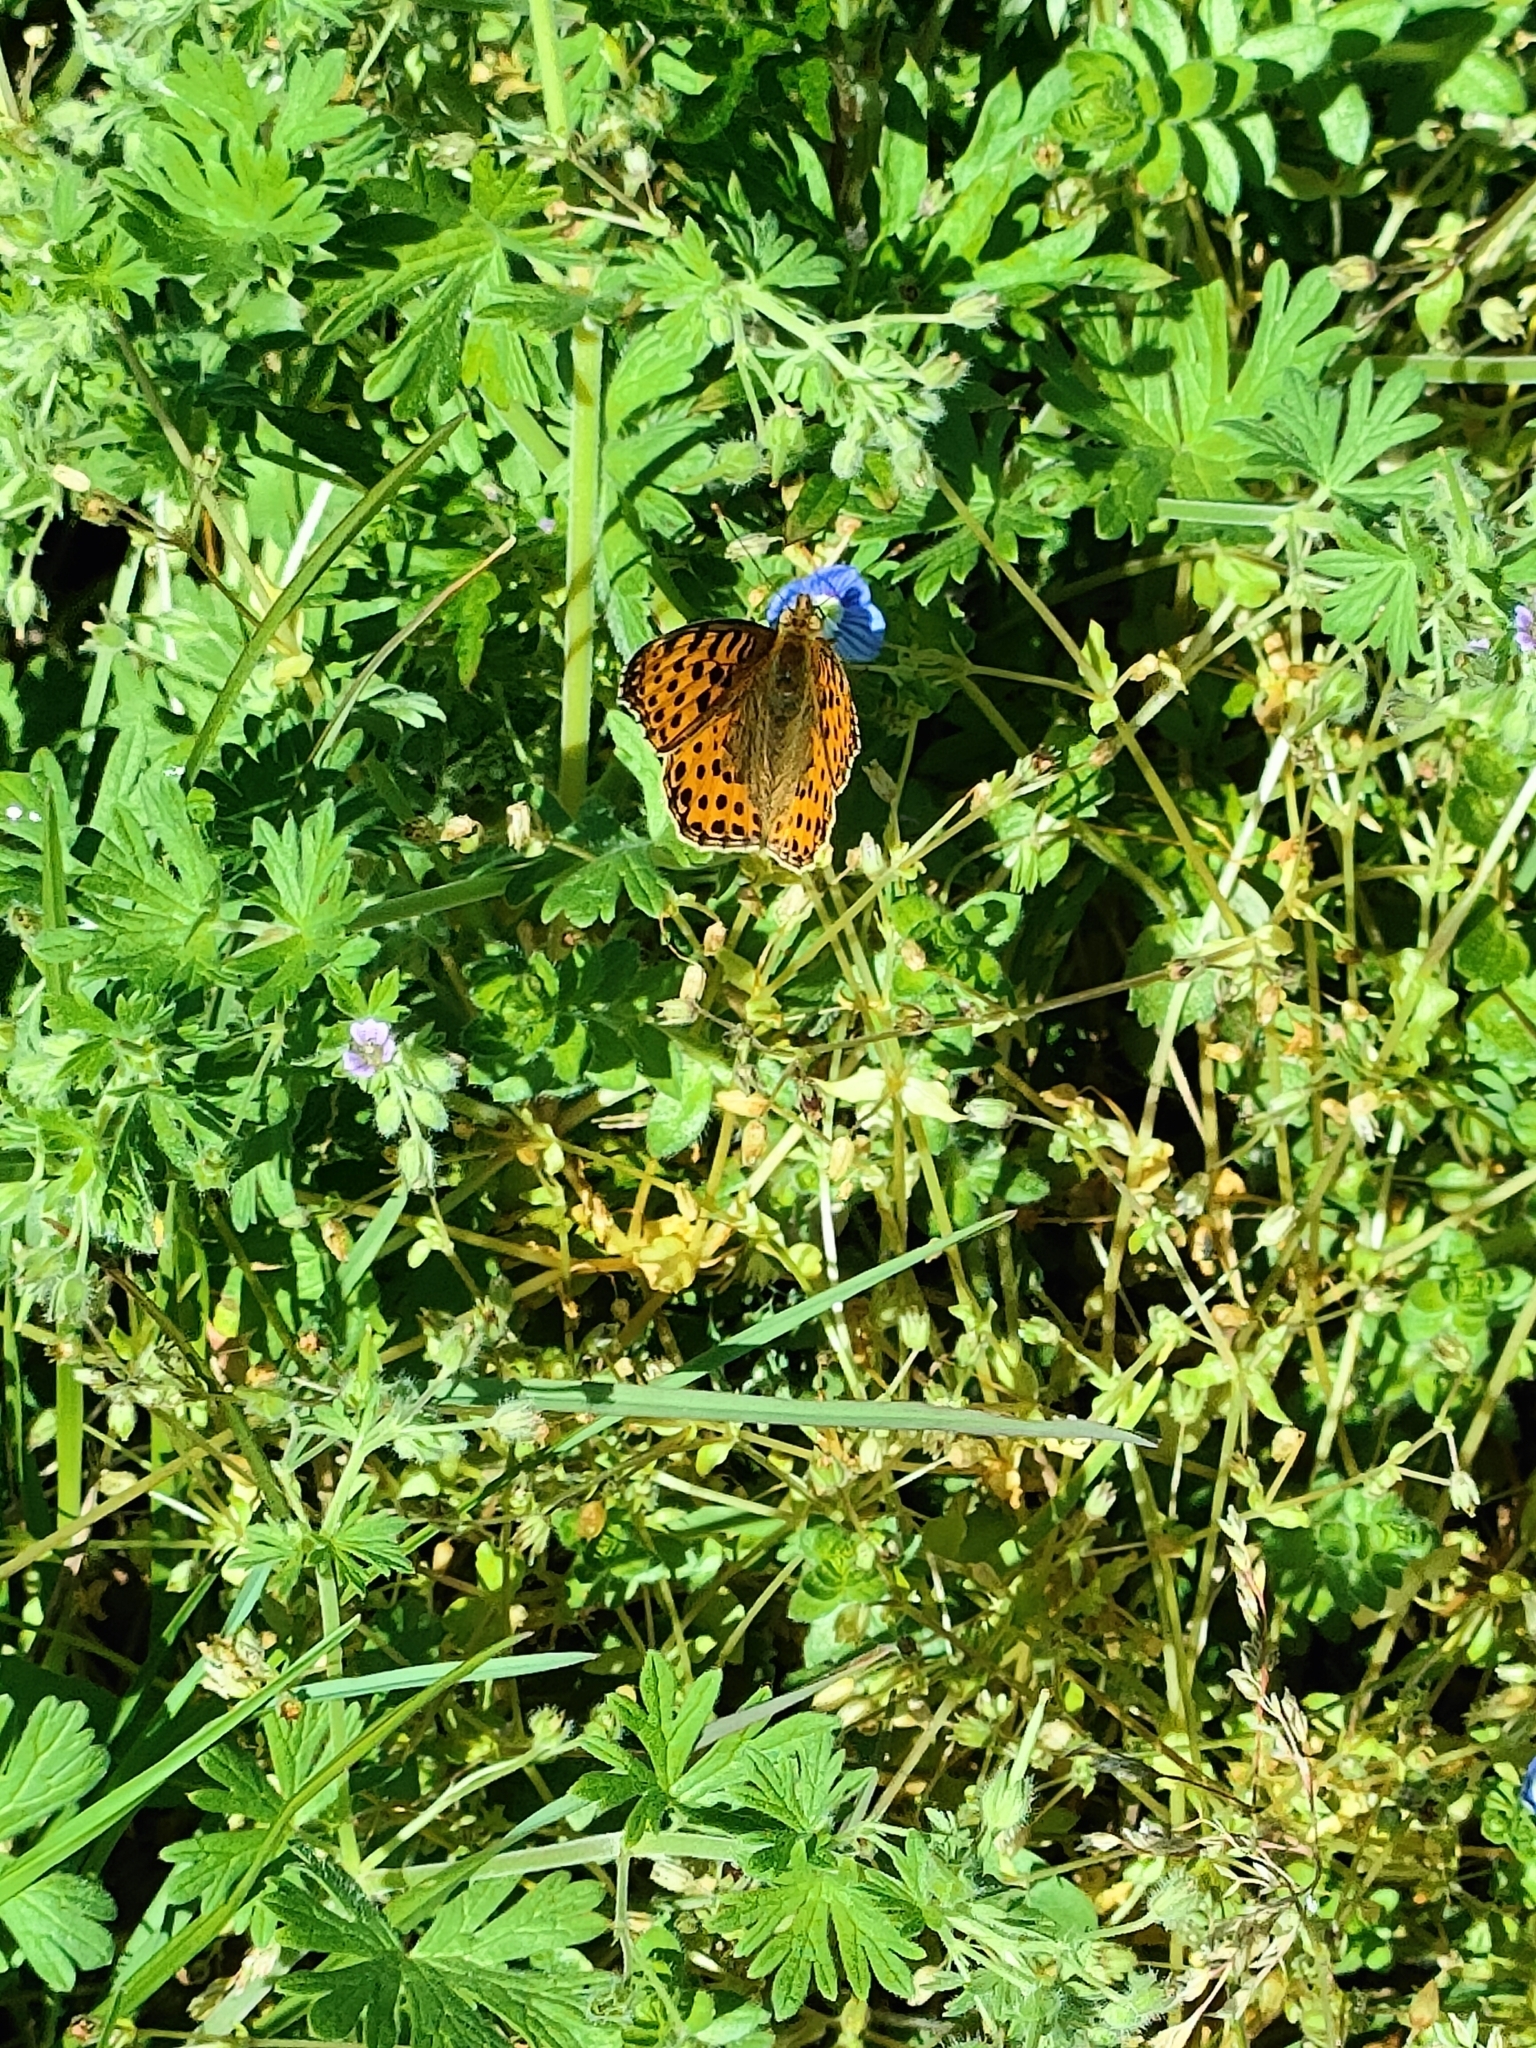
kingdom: Animalia
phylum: Arthropoda
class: Insecta
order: Lepidoptera
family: Nymphalidae
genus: Issoria
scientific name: Issoria lathonia
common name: Queen of spain fritillary
